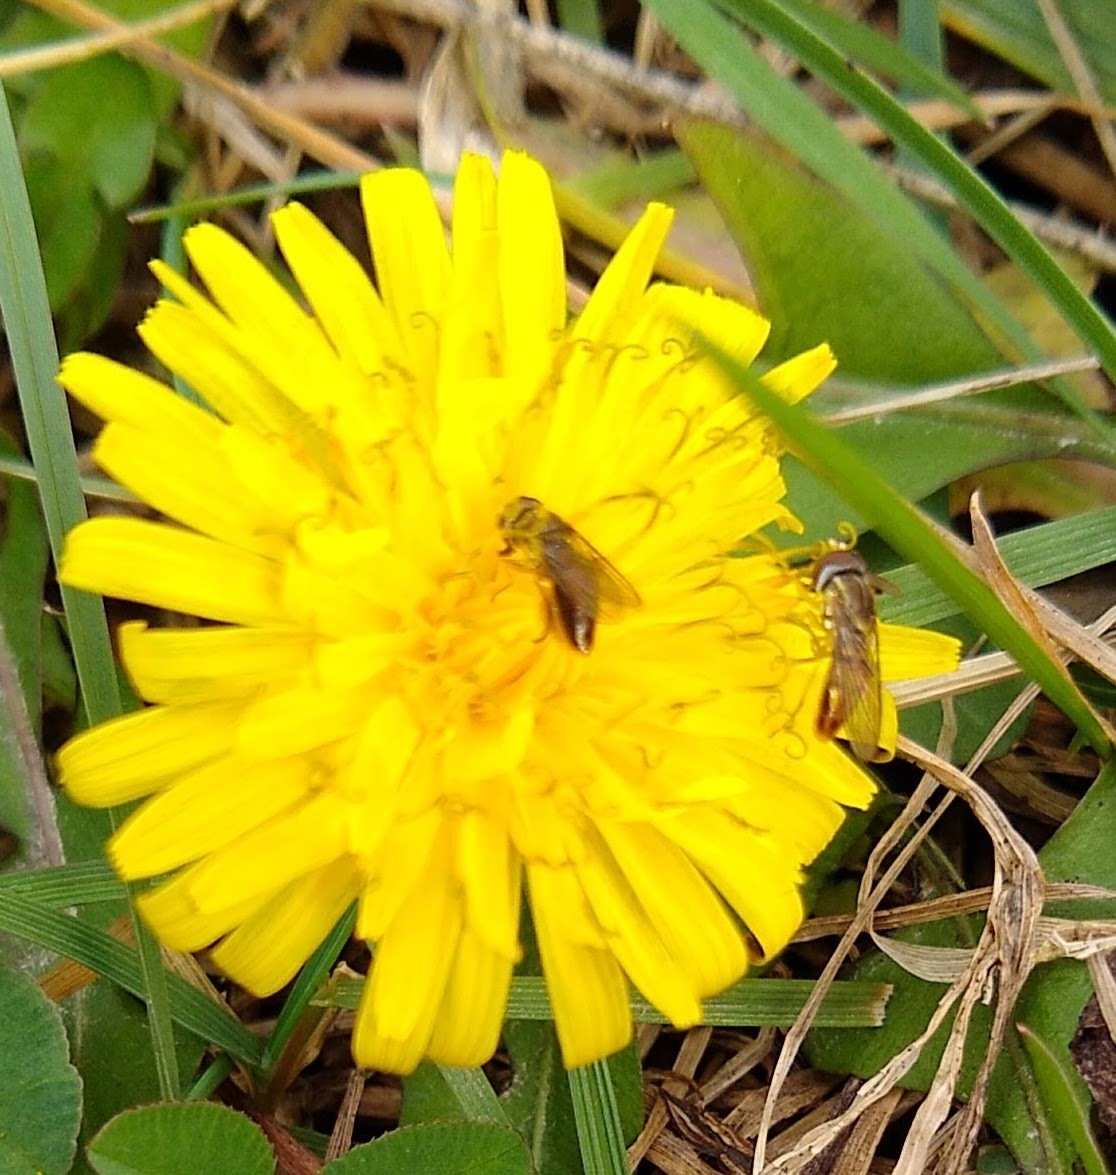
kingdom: Animalia
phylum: Arthropoda
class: Insecta
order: Diptera
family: Syrphidae
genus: Toxomerus
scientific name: Toxomerus marginatus
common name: Syrphid fly
